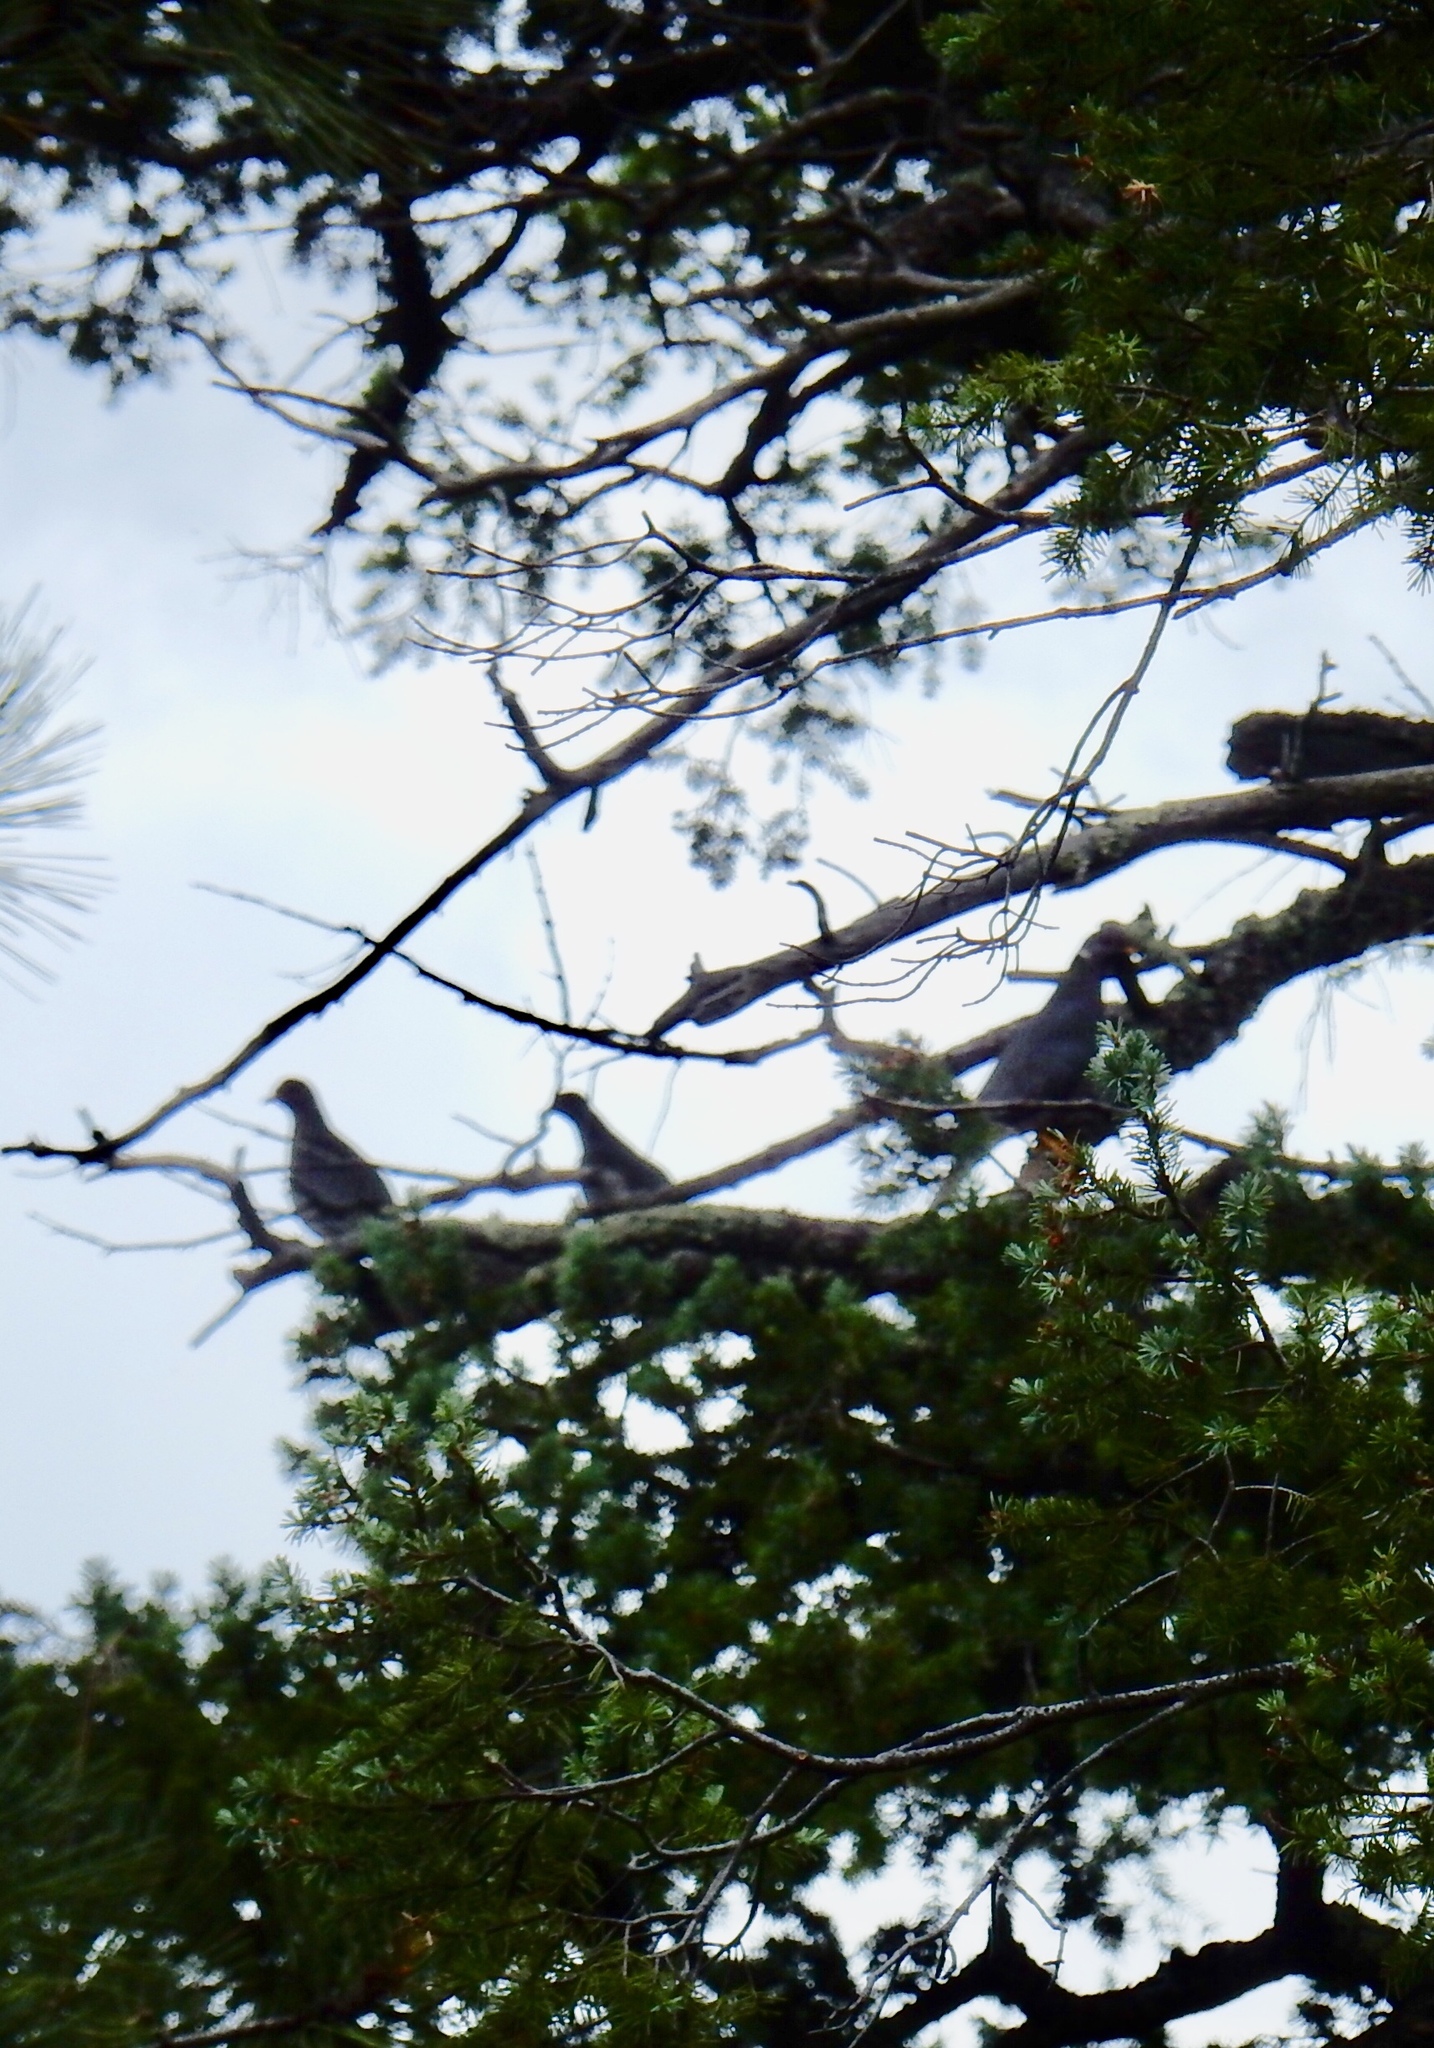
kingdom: Animalia
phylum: Chordata
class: Aves
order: Columbiformes
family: Columbidae
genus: Patagioenas
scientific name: Patagioenas fasciata
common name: Band-tailed pigeon
